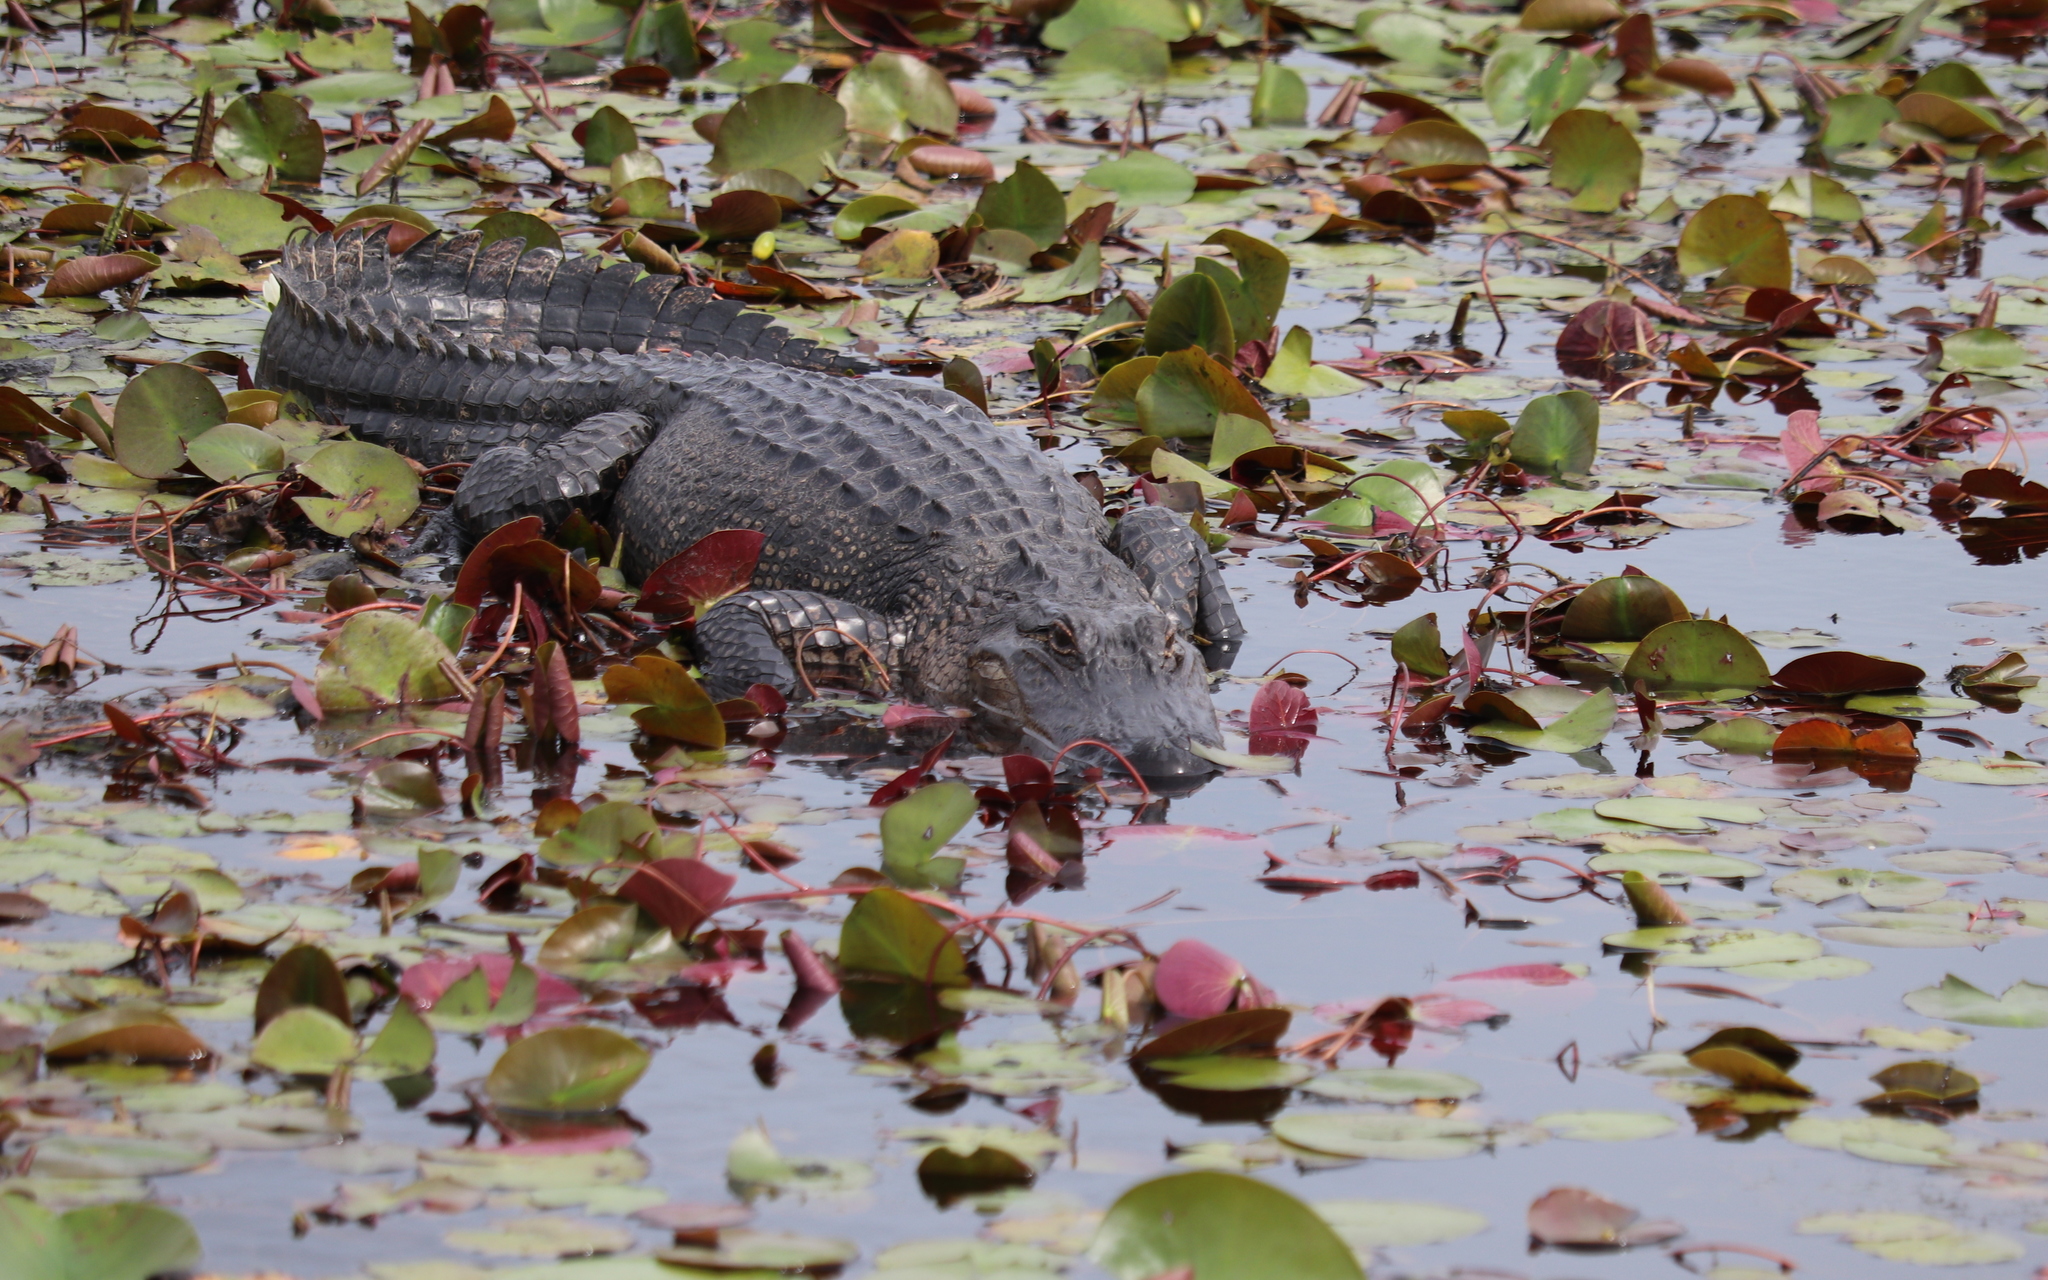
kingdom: Animalia
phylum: Chordata
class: Crocodylia
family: Alligatoridae
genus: Alligator
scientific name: Alligator mississippiensis
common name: American alligator
